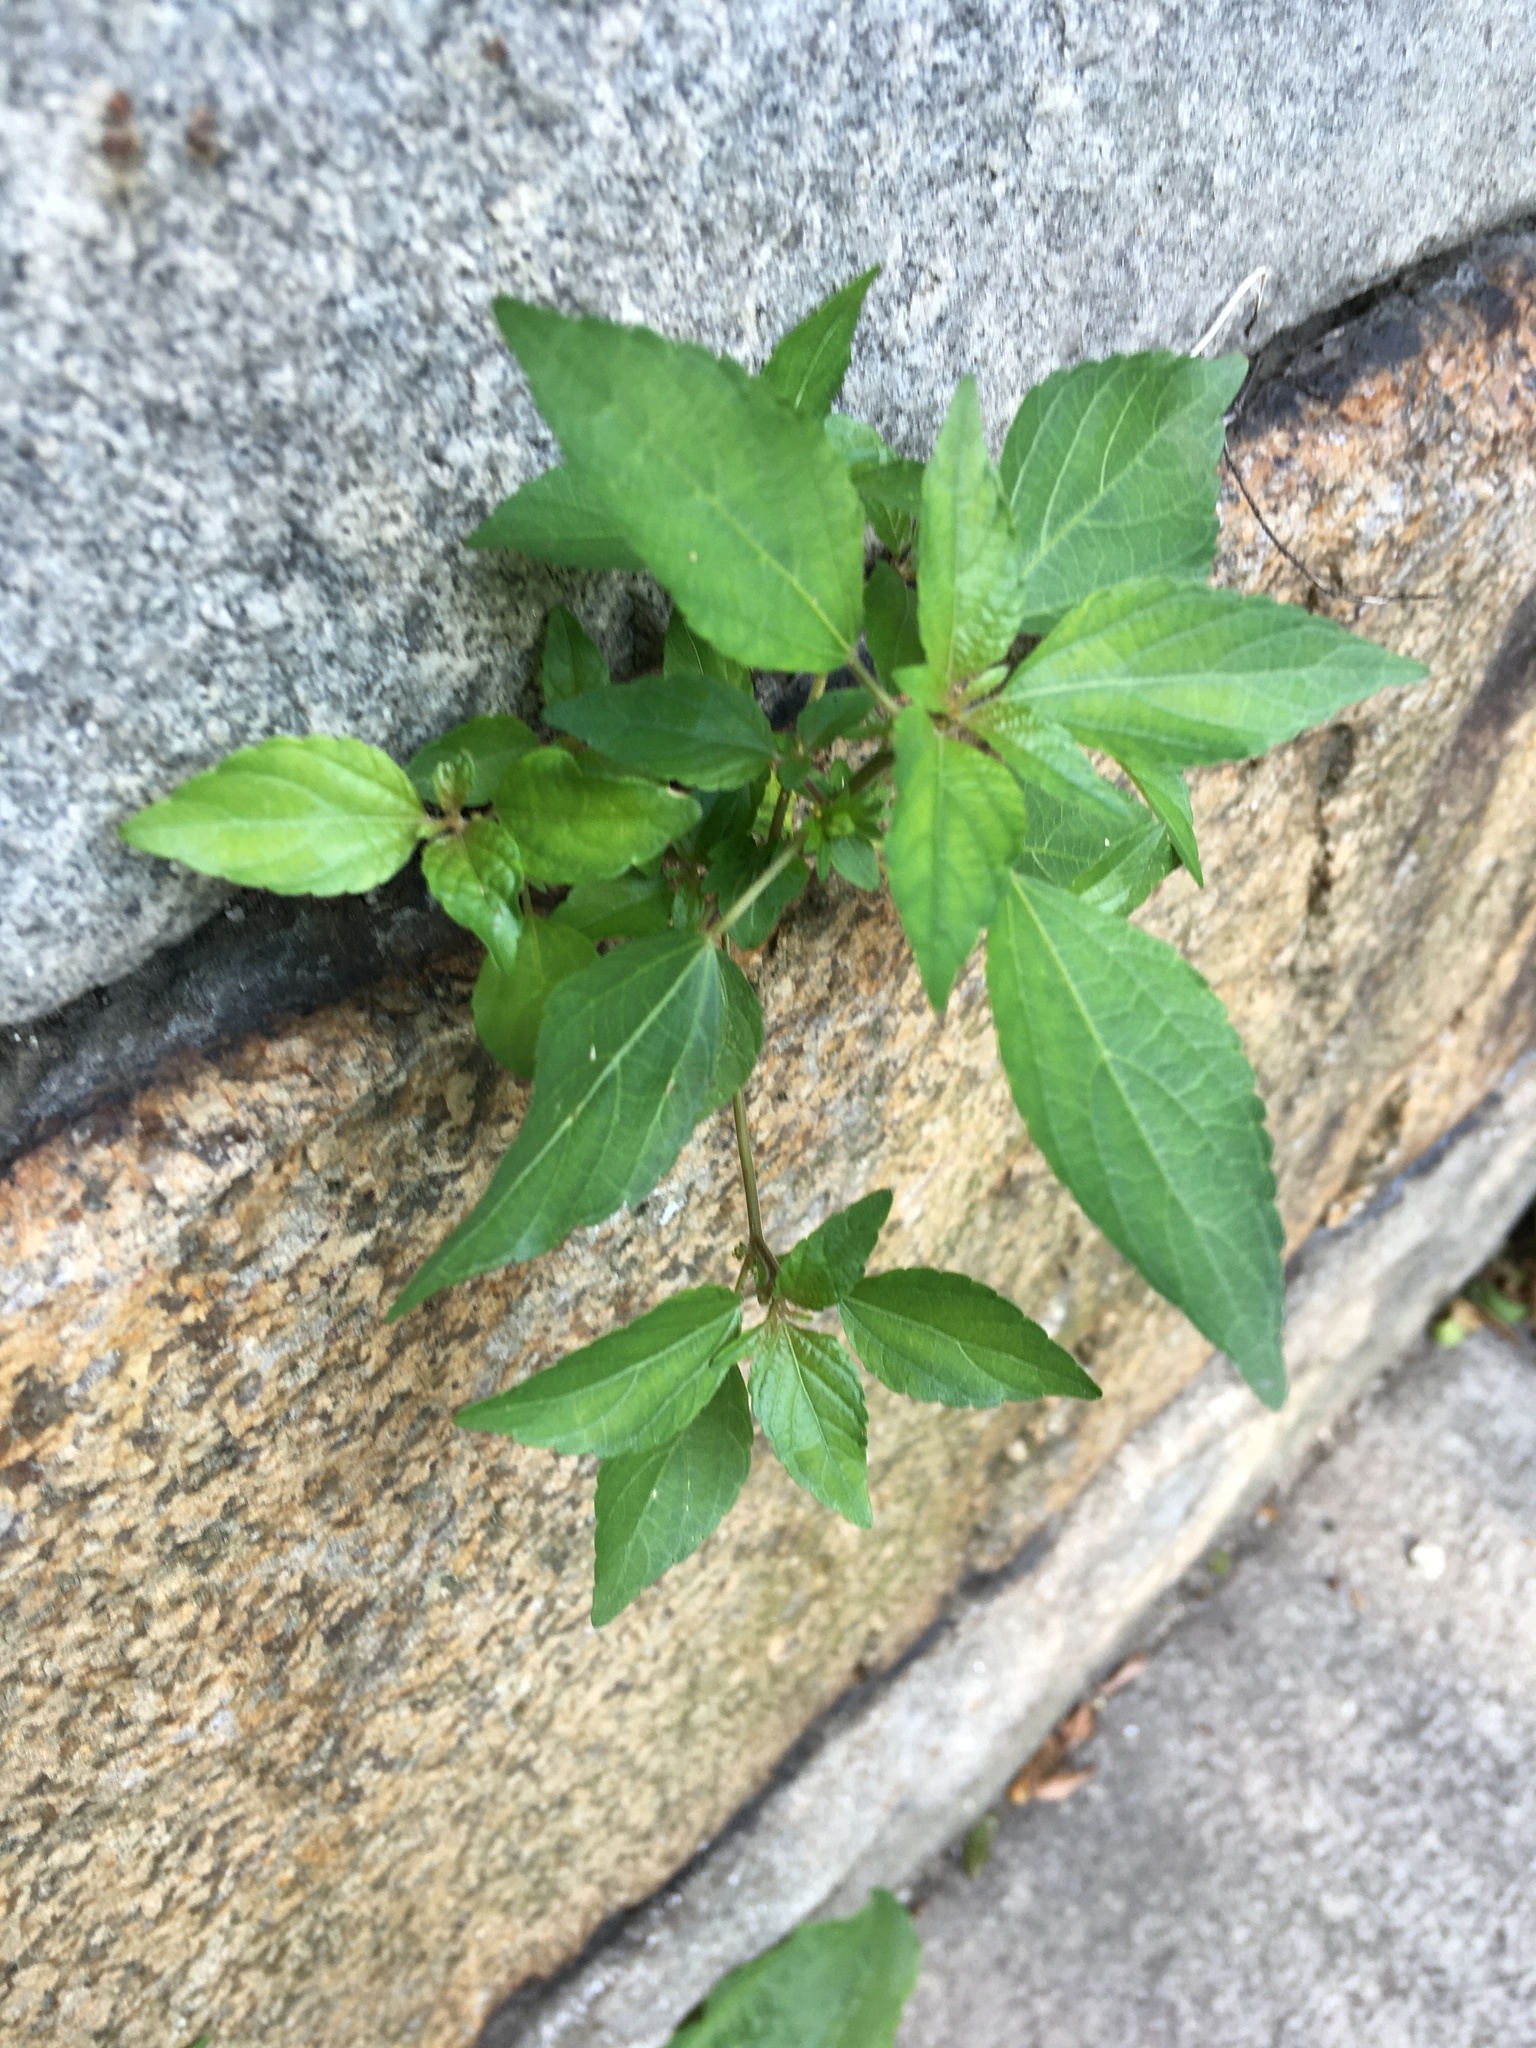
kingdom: Plantae
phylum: Tracheophyta
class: Magnoliopsida
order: Malpighiales
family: Euphorbiaceae
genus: Acalypha
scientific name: Acalypha rhomboidea
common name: Rhombic copperleaf
